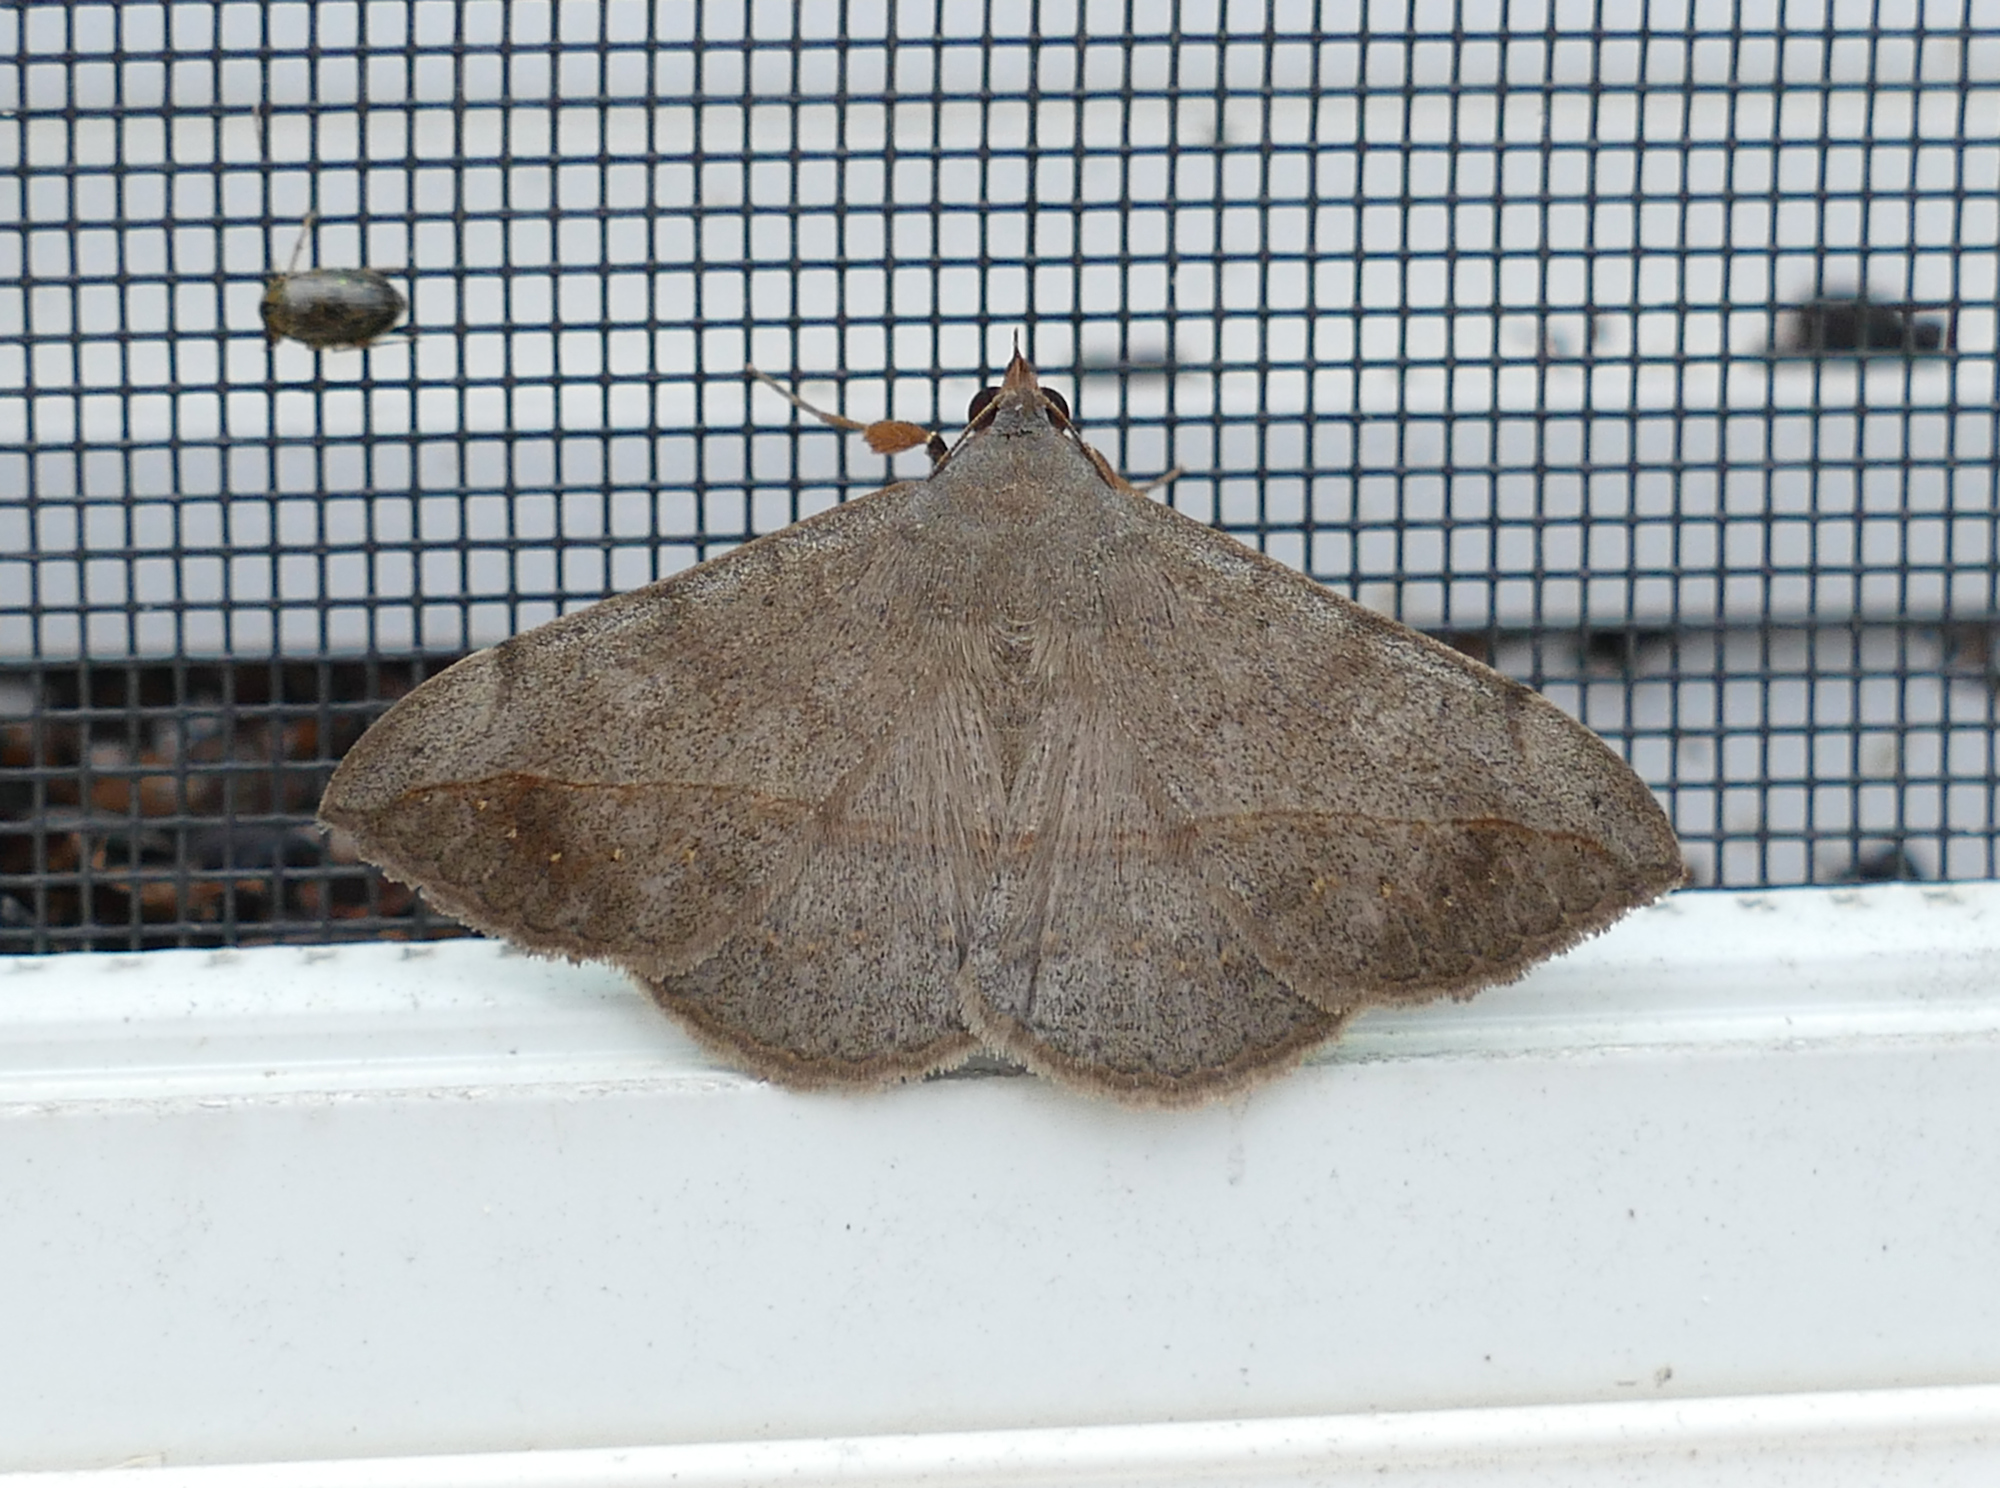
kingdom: Animalia
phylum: Arthropoda
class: Insecta
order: Lepidoptera
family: Erebidae
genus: Anticarsia
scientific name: Anticarsia gemmatalis
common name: Cutworm moth
